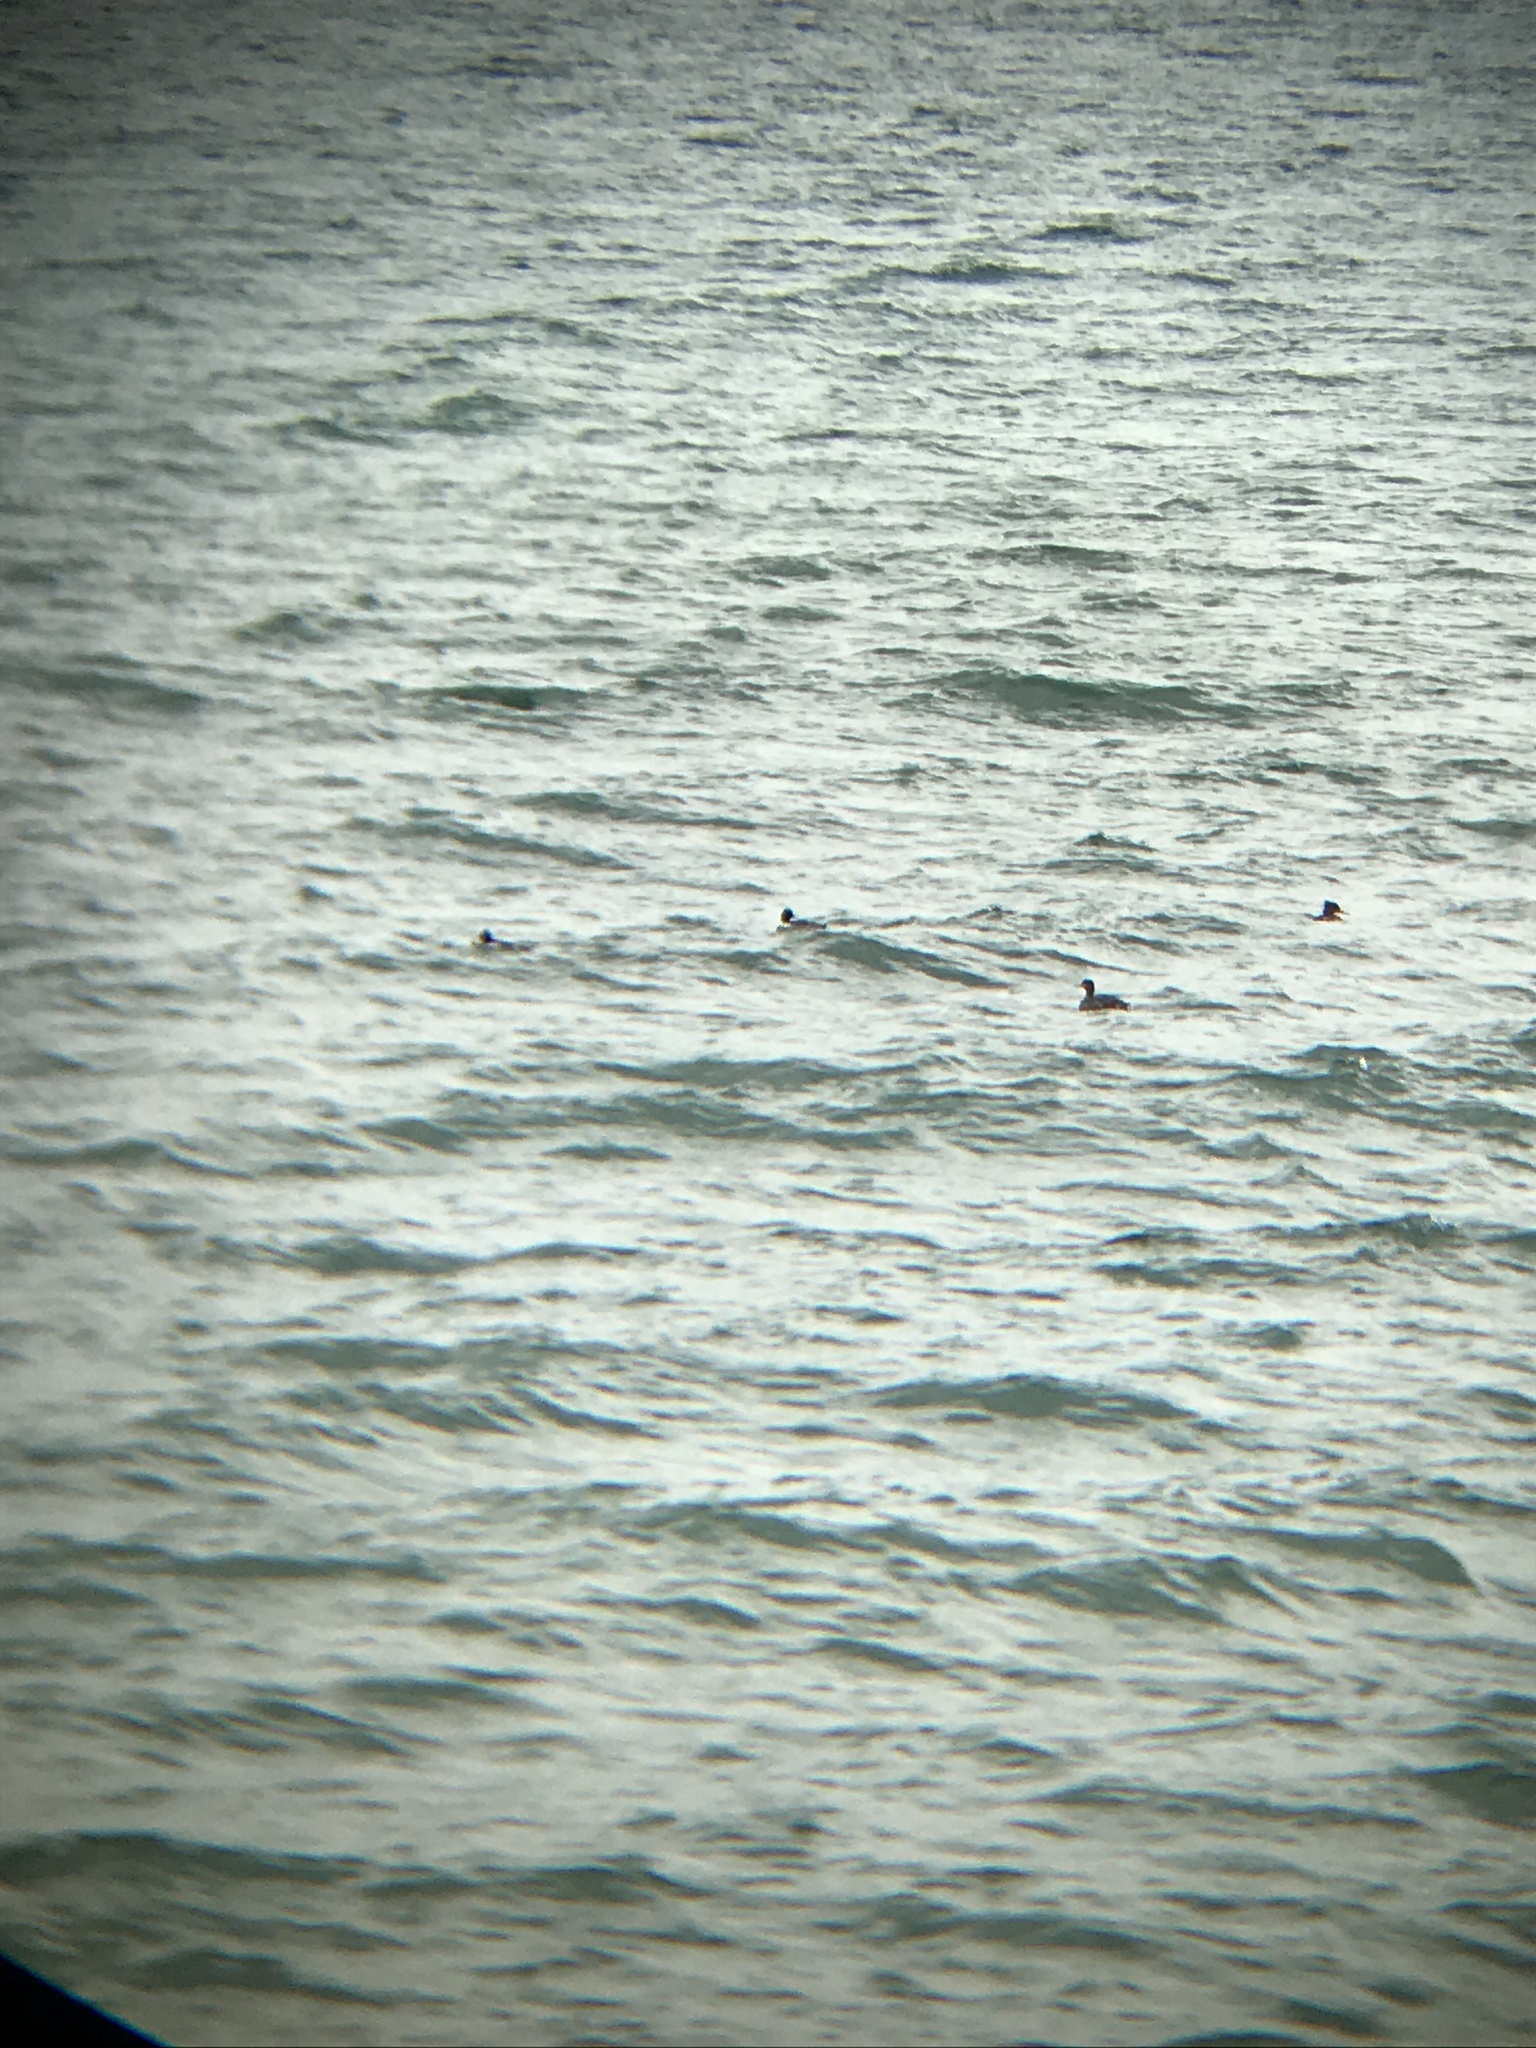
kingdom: Animalia
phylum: Chordata
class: Aves
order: Anseriformes
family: Anatidae
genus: Mergus
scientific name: Mergus serrator
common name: Red-breasted merganser
